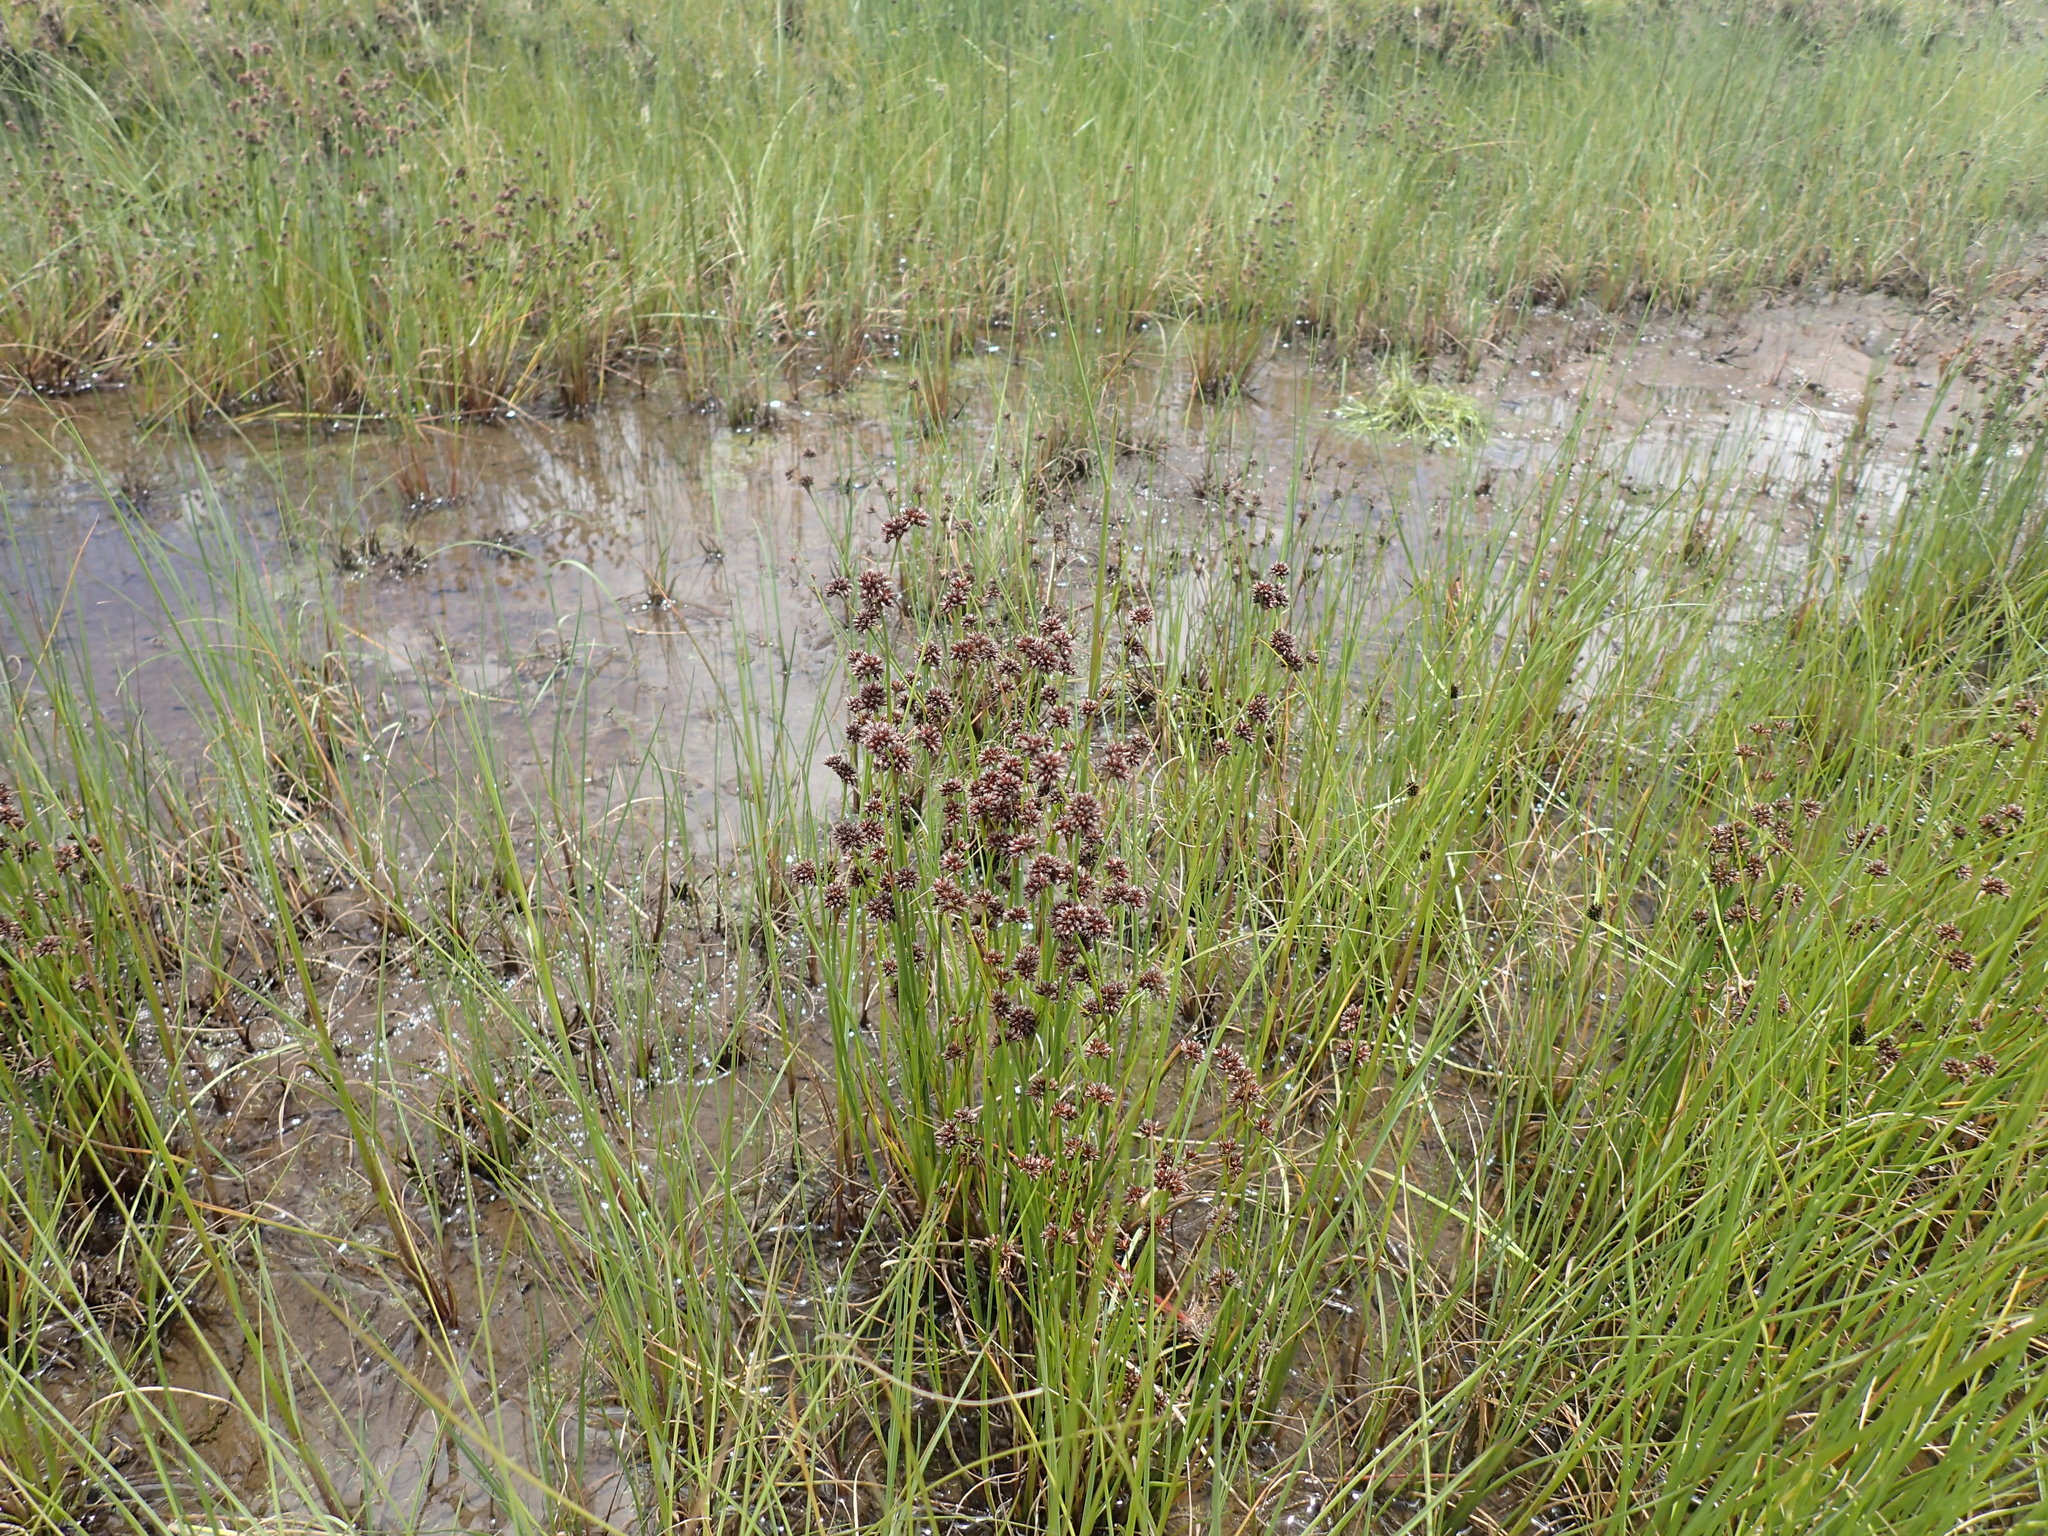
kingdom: Plantae
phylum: Tracheophyta
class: Liliopsida
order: Poales
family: Juncaceae
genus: Juncus
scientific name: Juncus oxycarpus
